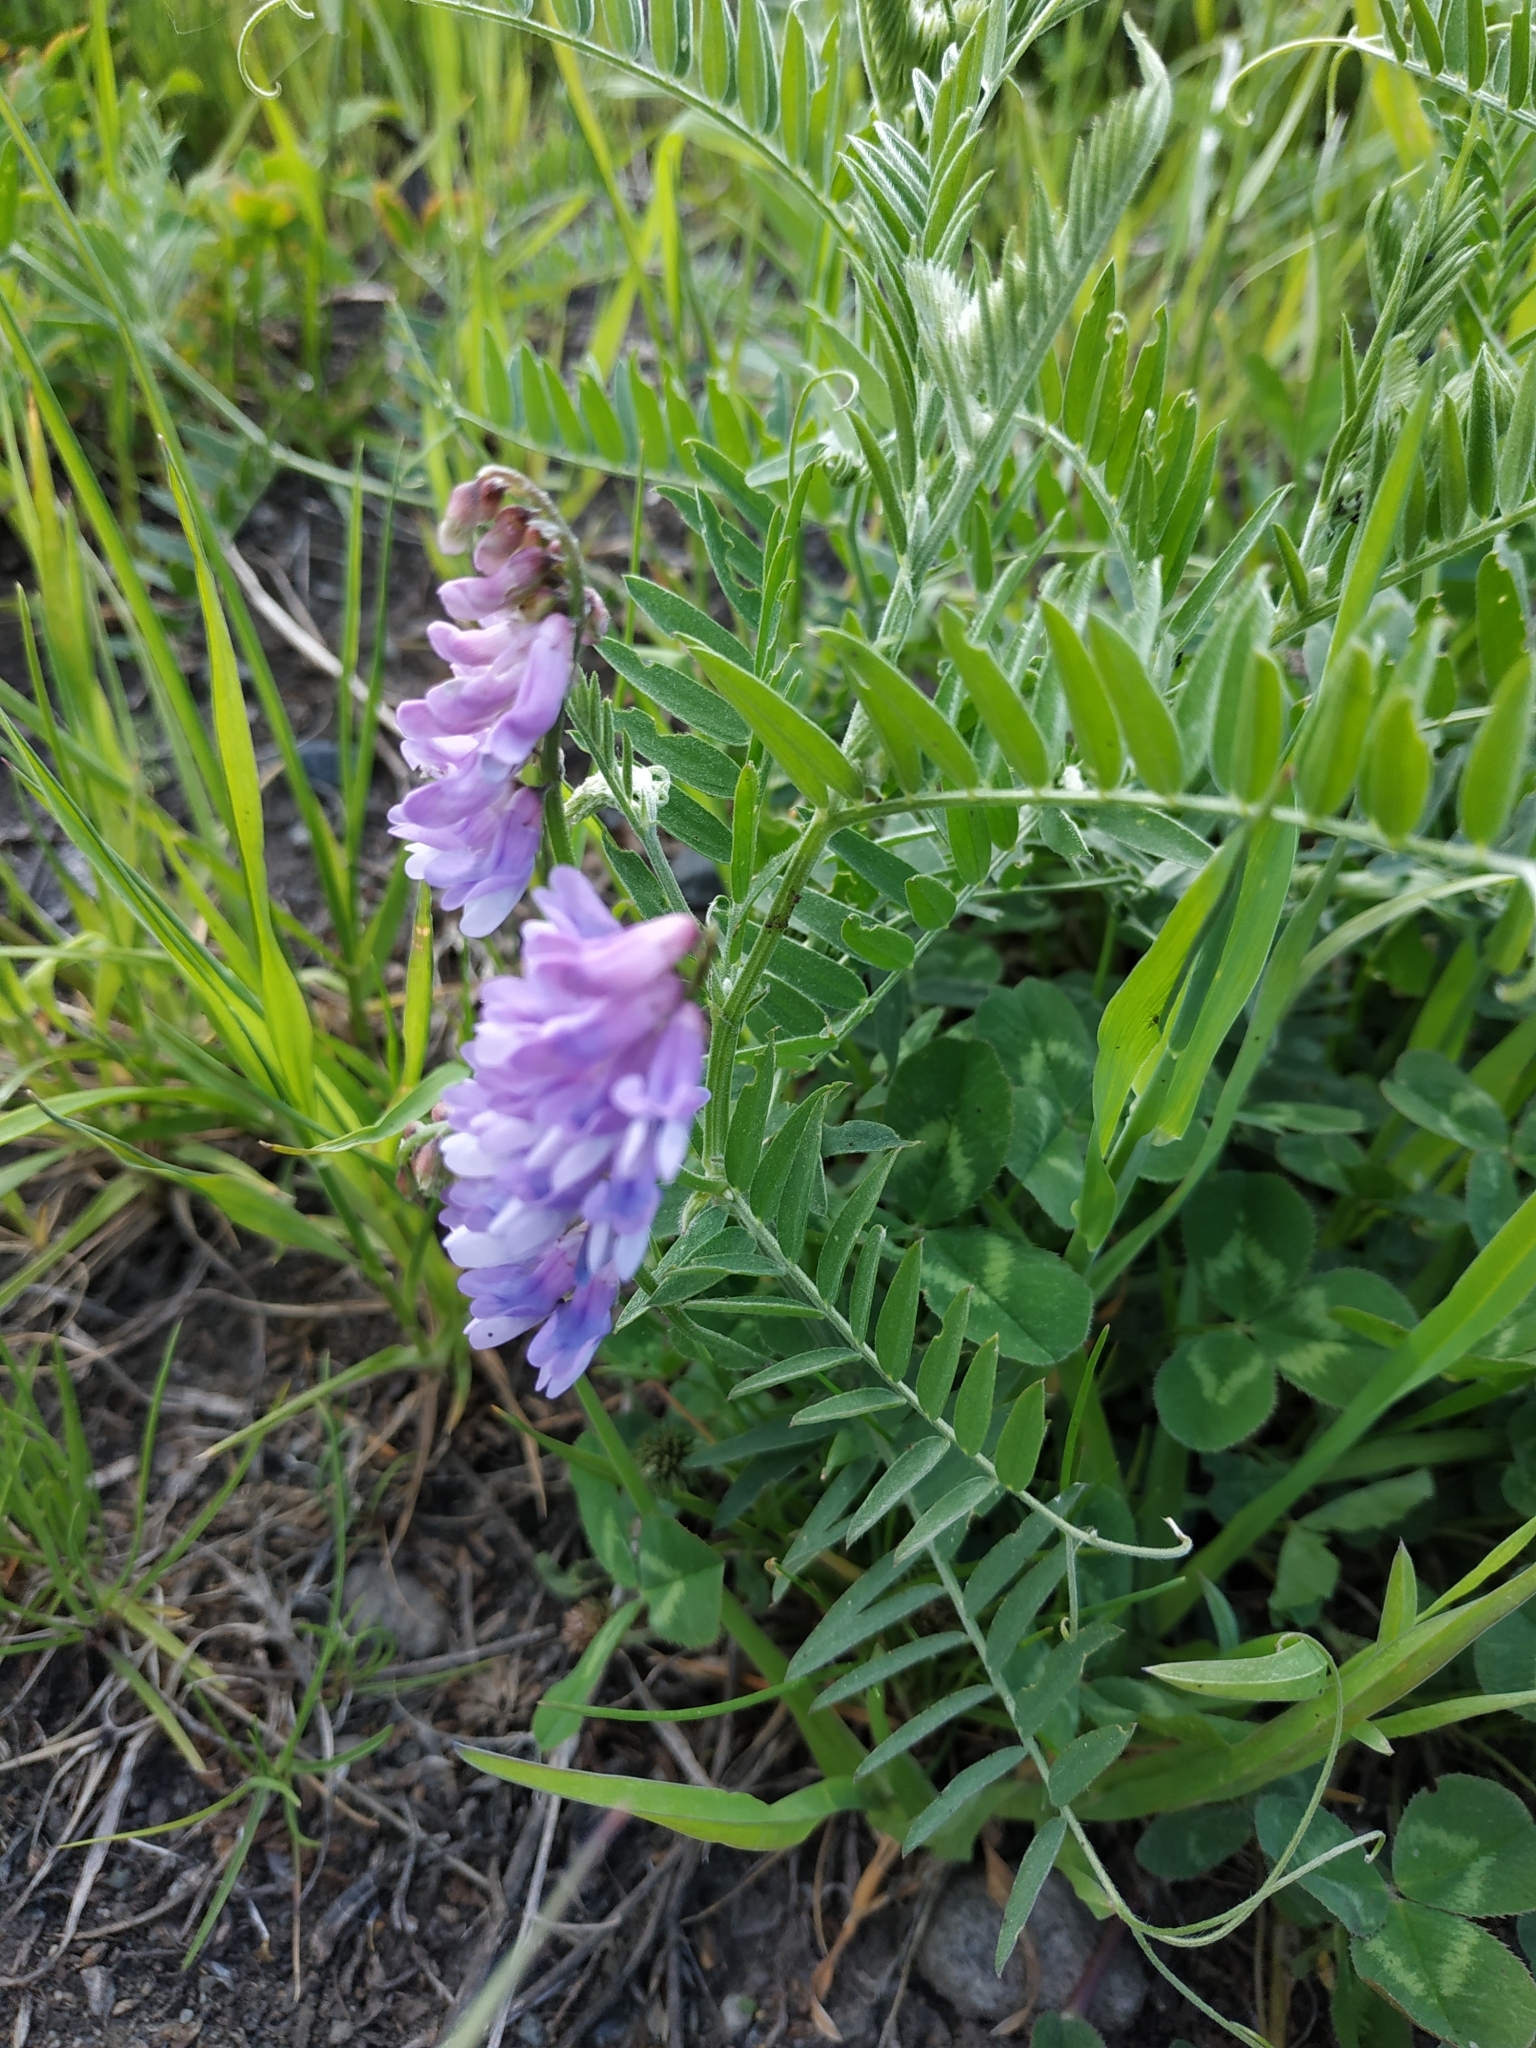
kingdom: Plantae
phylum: Tracheophyta
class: Magnoliopsida
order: Fabales
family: Fabaceae
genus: Vicia
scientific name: Vicia cracca
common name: Bird vetch
